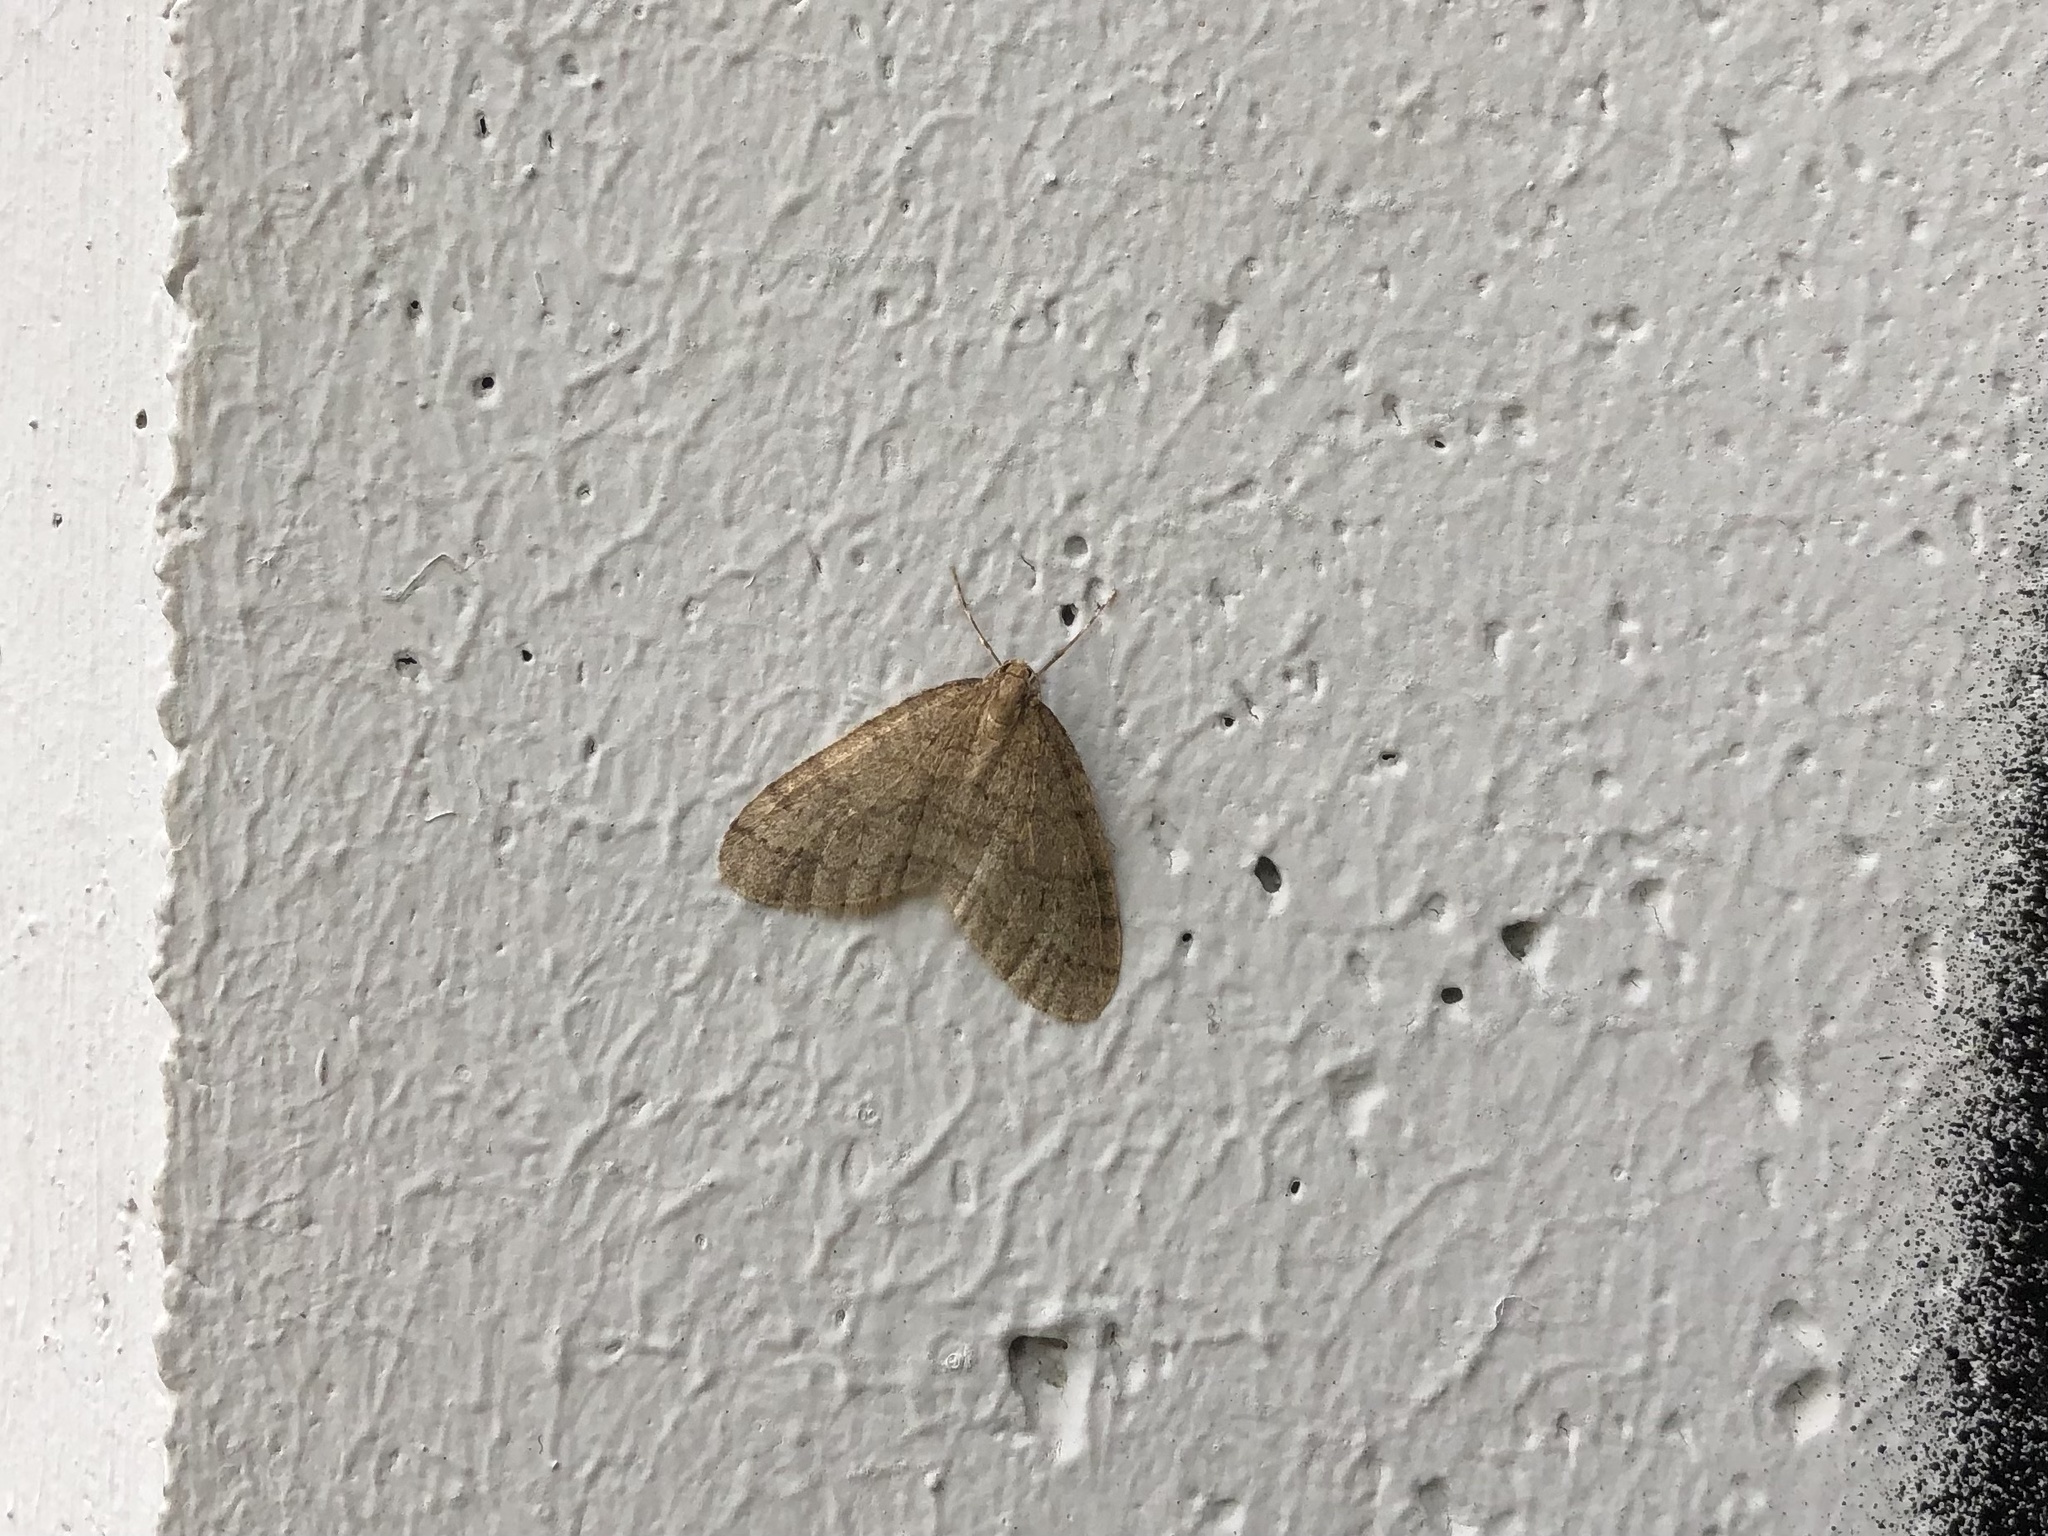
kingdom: Animalia
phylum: Arthropoda
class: Insecta
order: Lepidoptera
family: Geometridae
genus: Operophtera
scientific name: Operophtera brumata
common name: Winter moth
